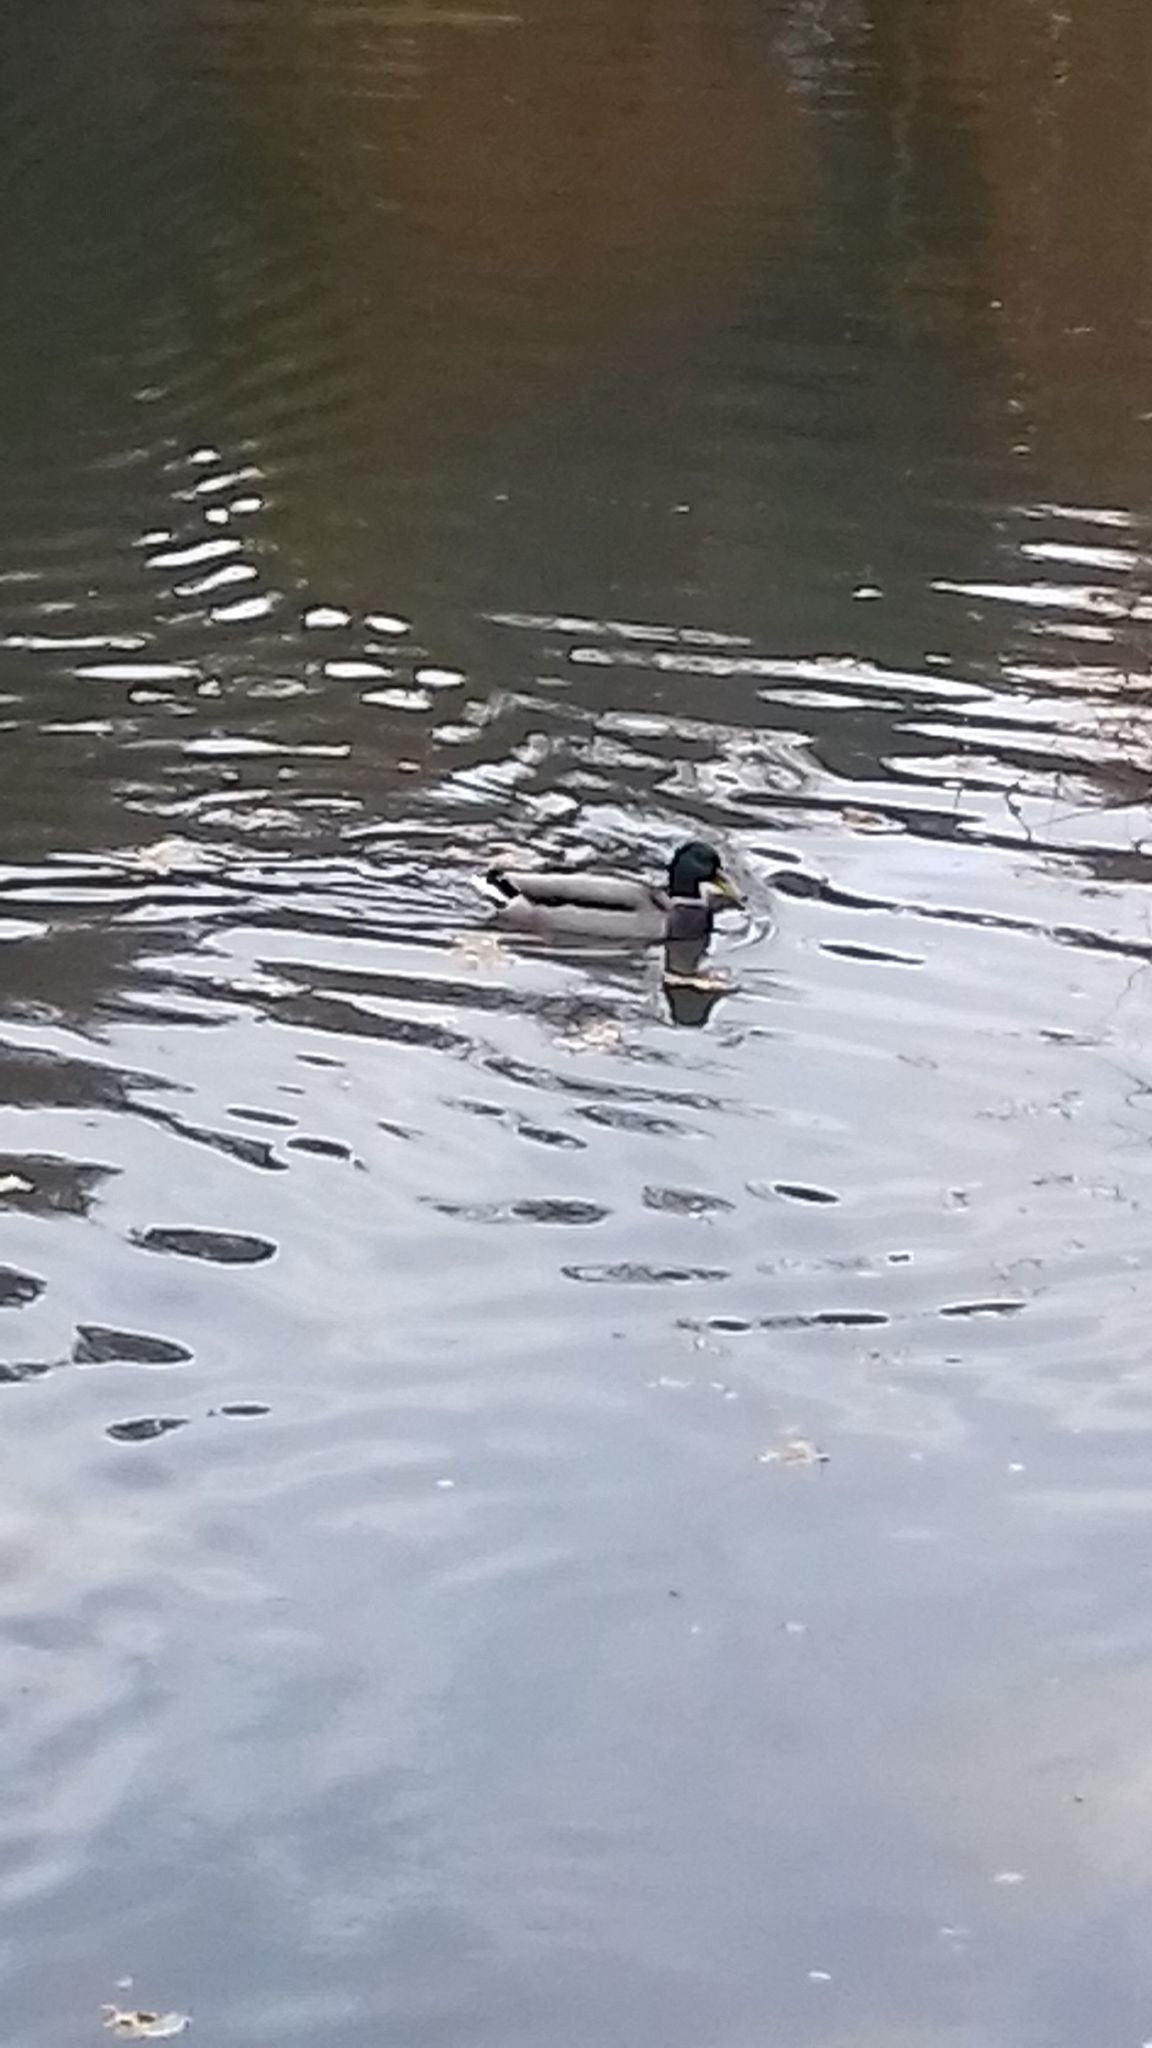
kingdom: Animalia
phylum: Chordata
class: Aves
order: Anseriformes
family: Anatidae
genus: Anas
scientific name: Anas platyrhynchos
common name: Mallard
